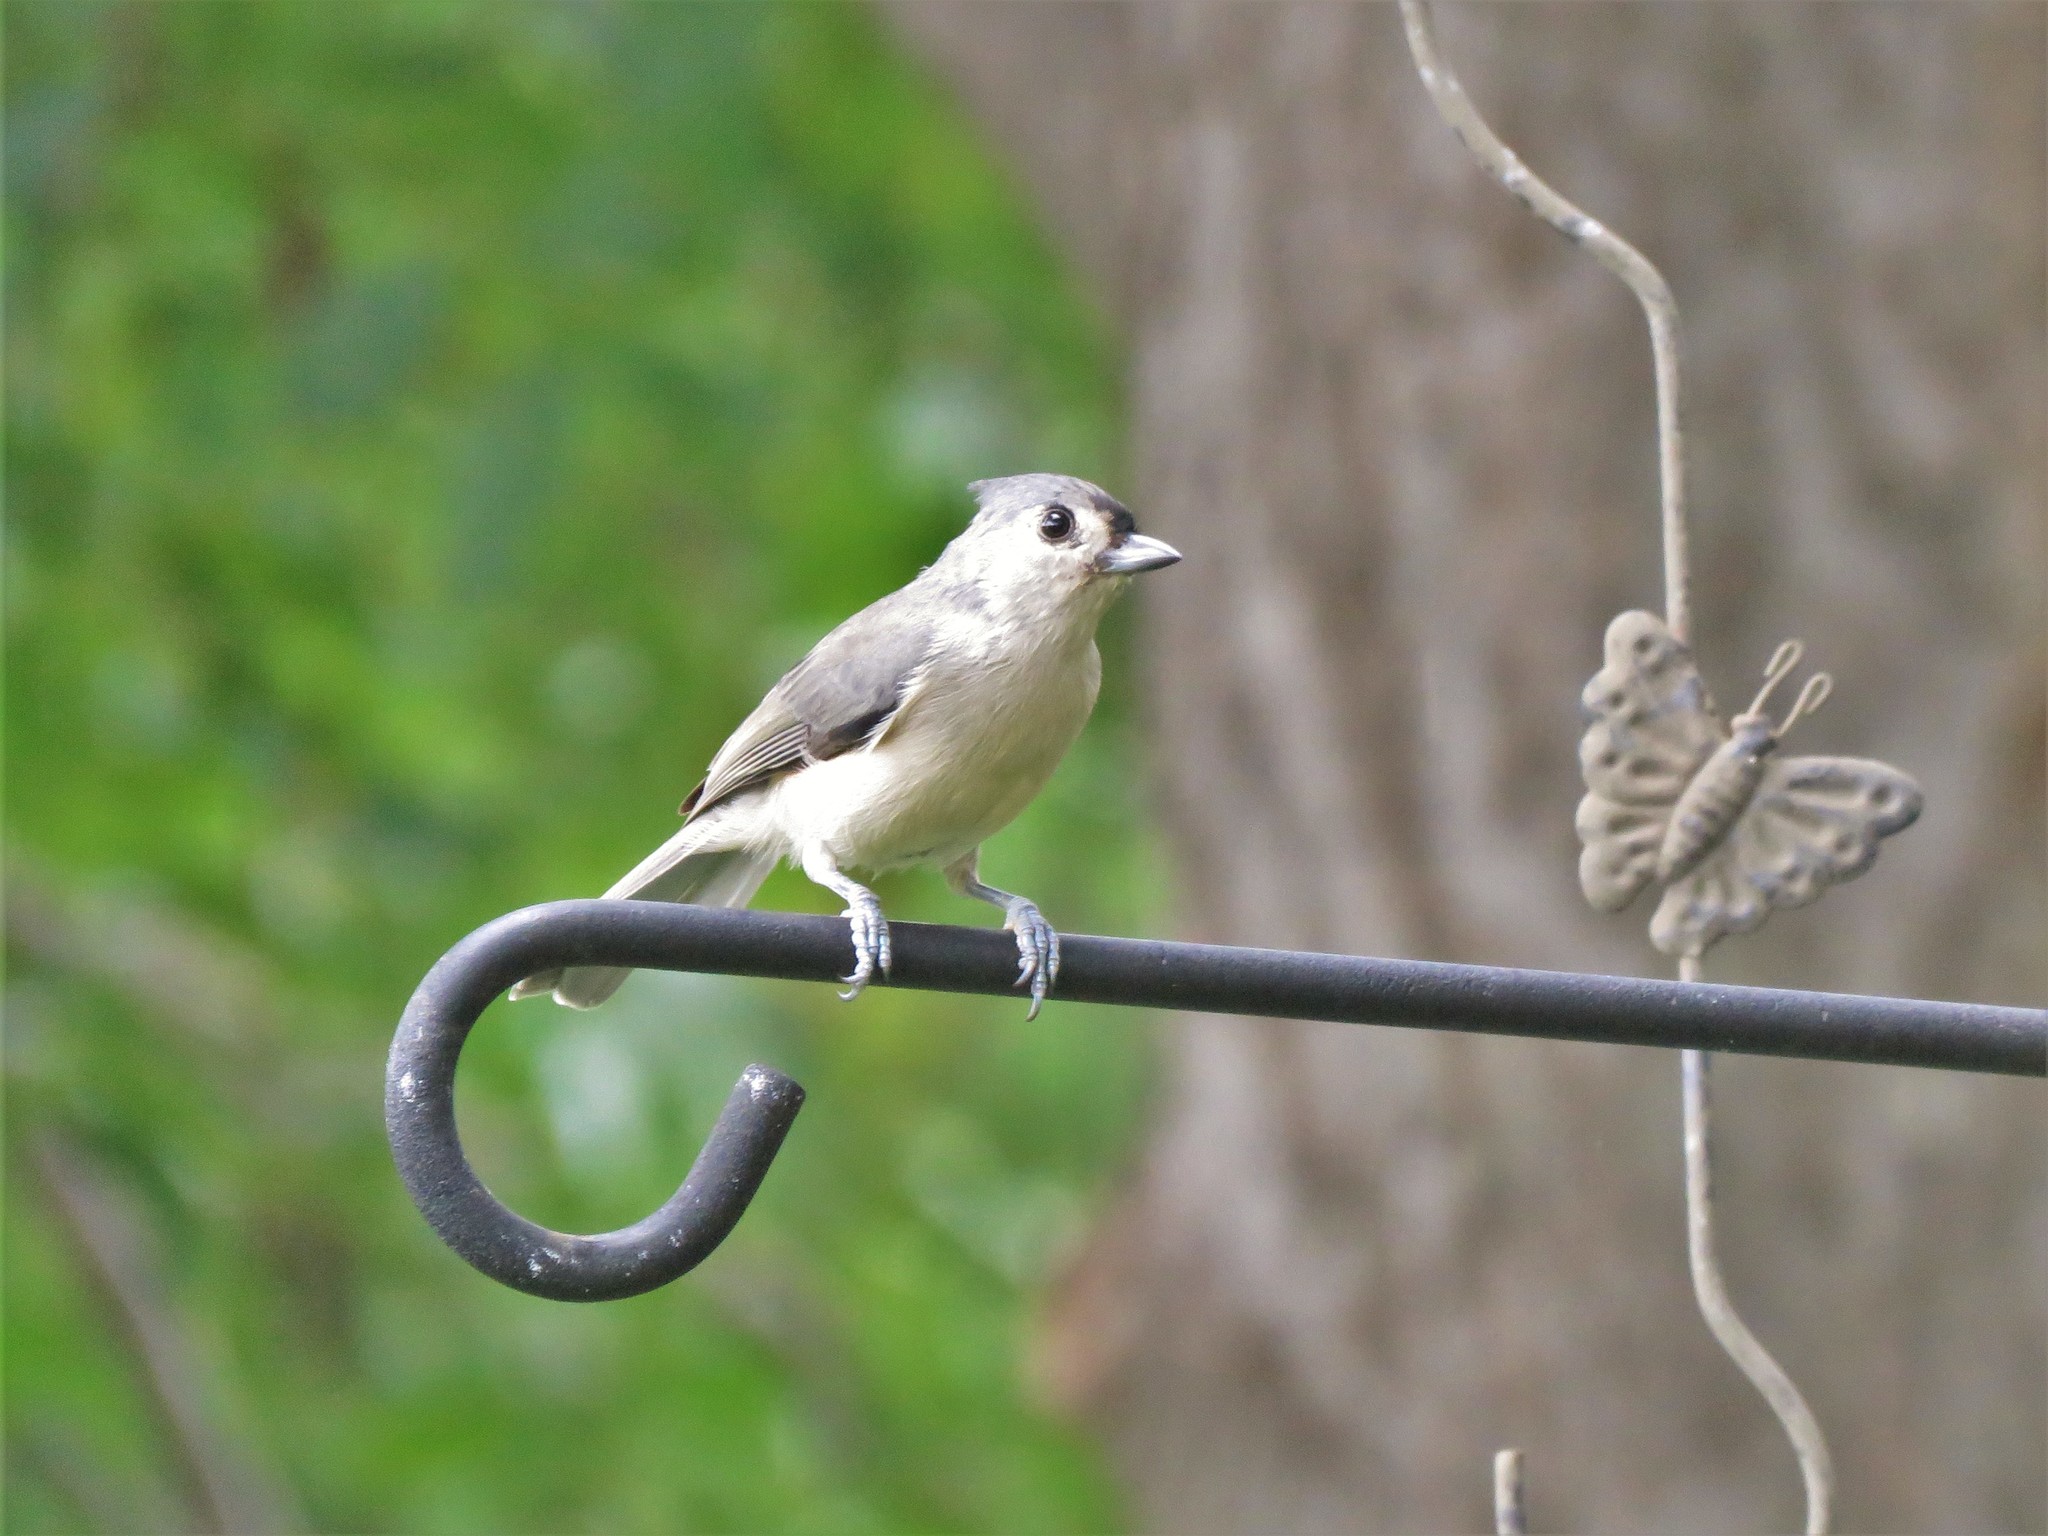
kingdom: Animalia
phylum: Chordata
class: Aves
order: Passeriformes
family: Paridae
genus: Baeolophus
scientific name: Baeolophus bicolor
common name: Tufted titmouse
